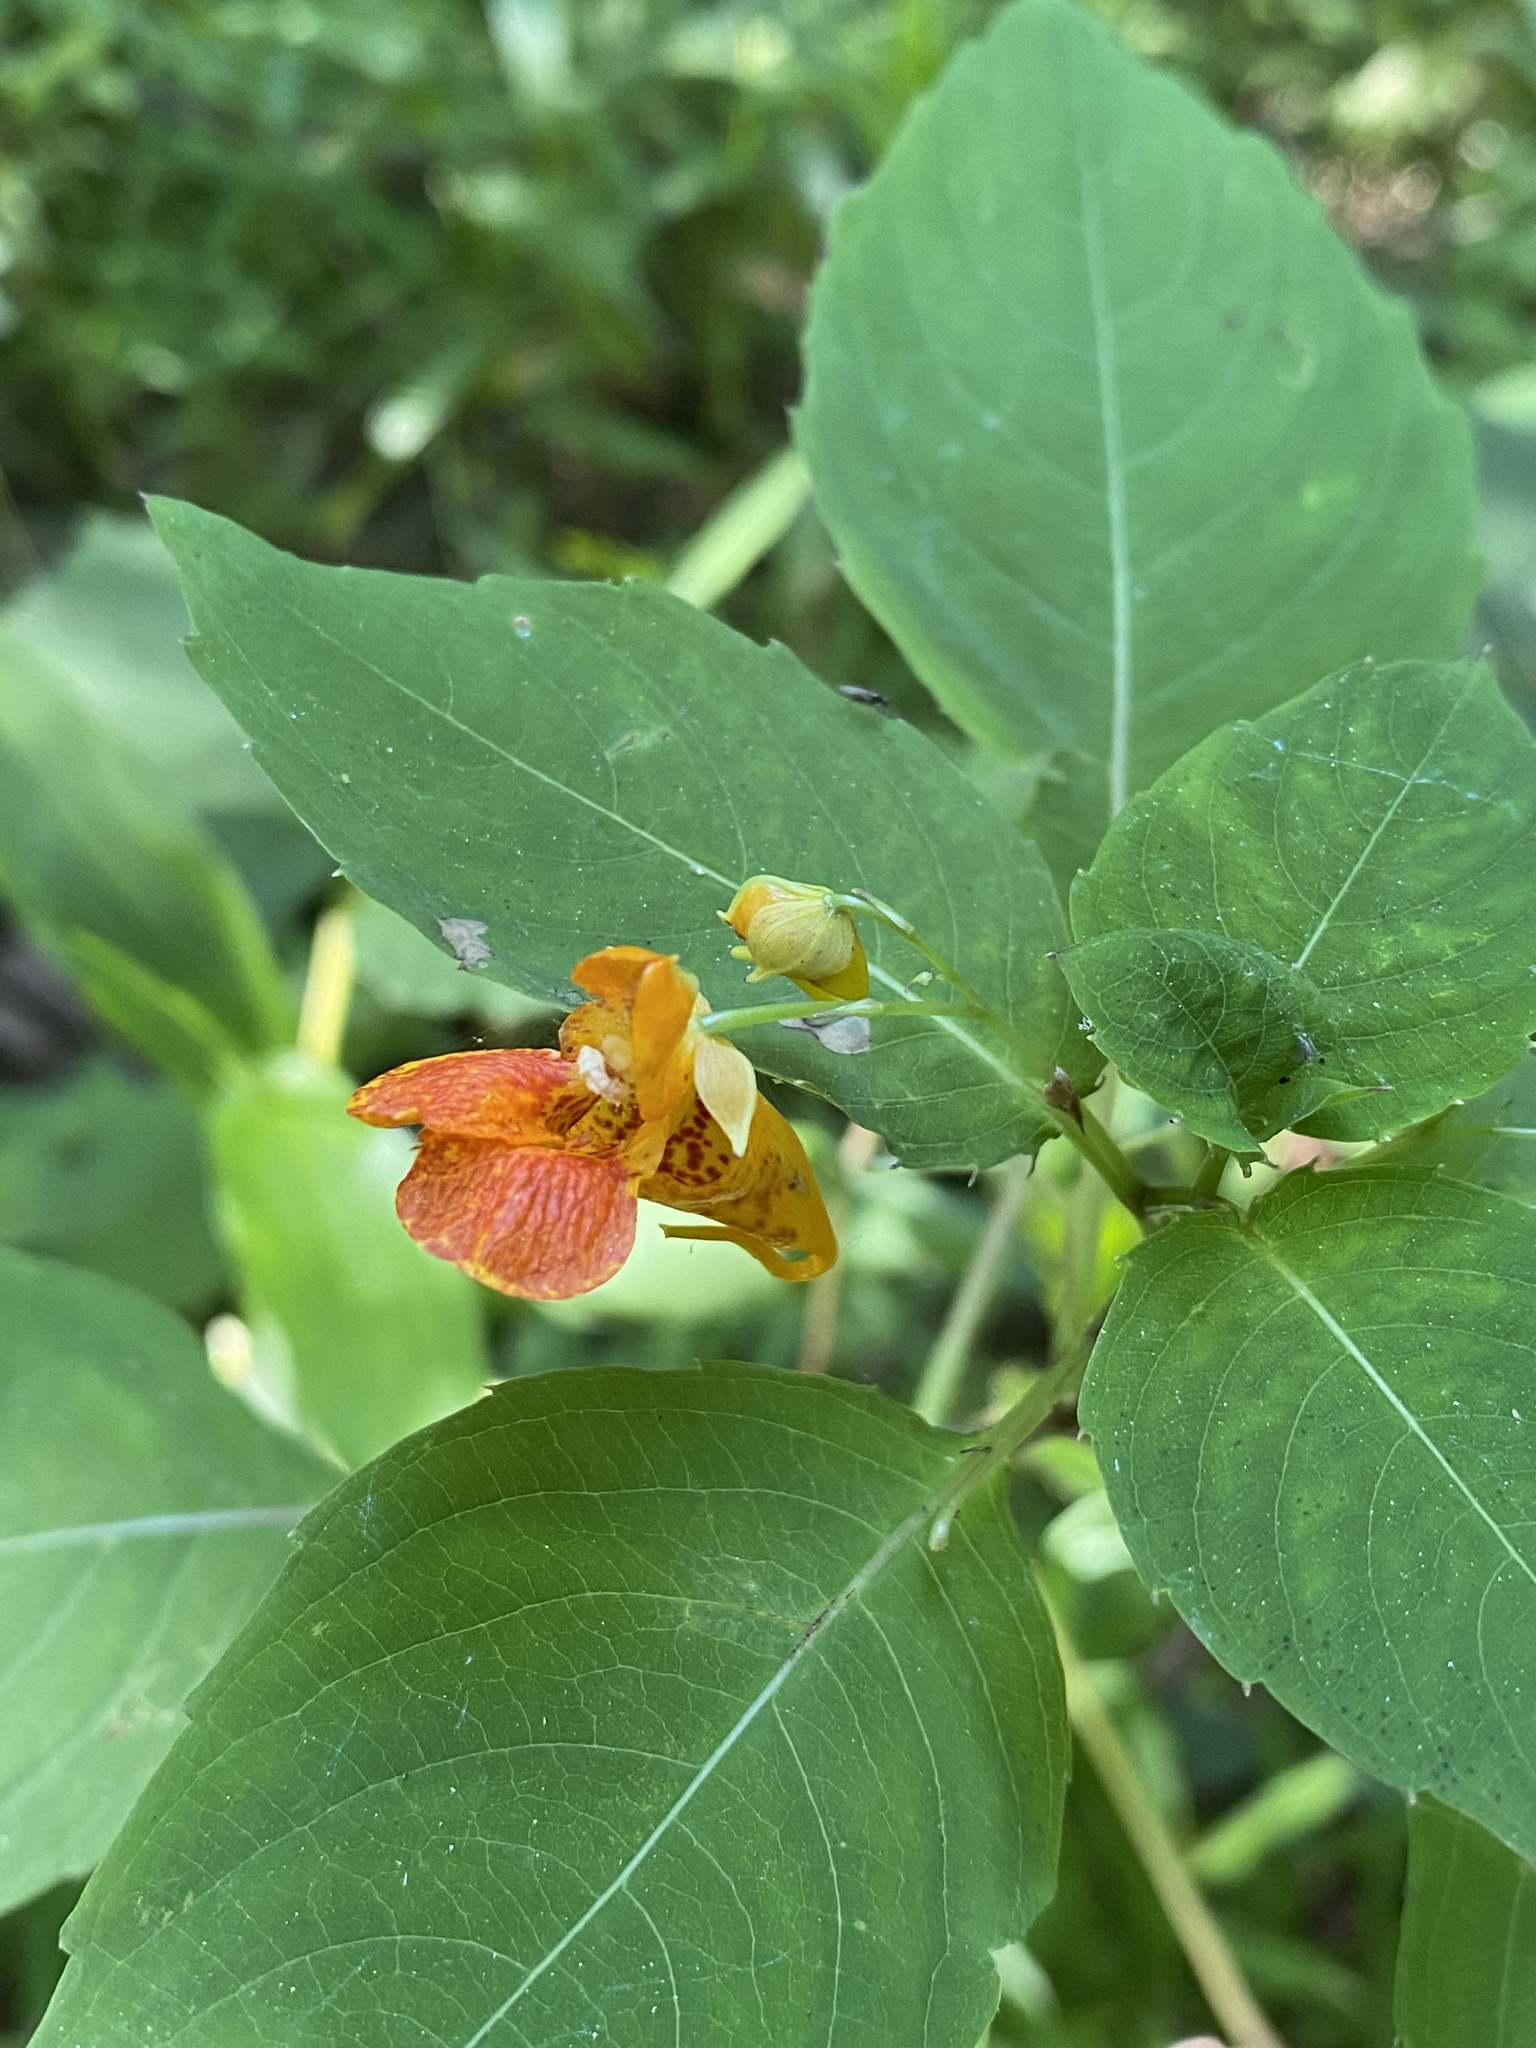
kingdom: Plantae
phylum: Tracheophyta
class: Magnoliopsida
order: Ericales
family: Balsaminaceae
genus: Impatiens
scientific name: Impatiens capensis
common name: Orange balsam
